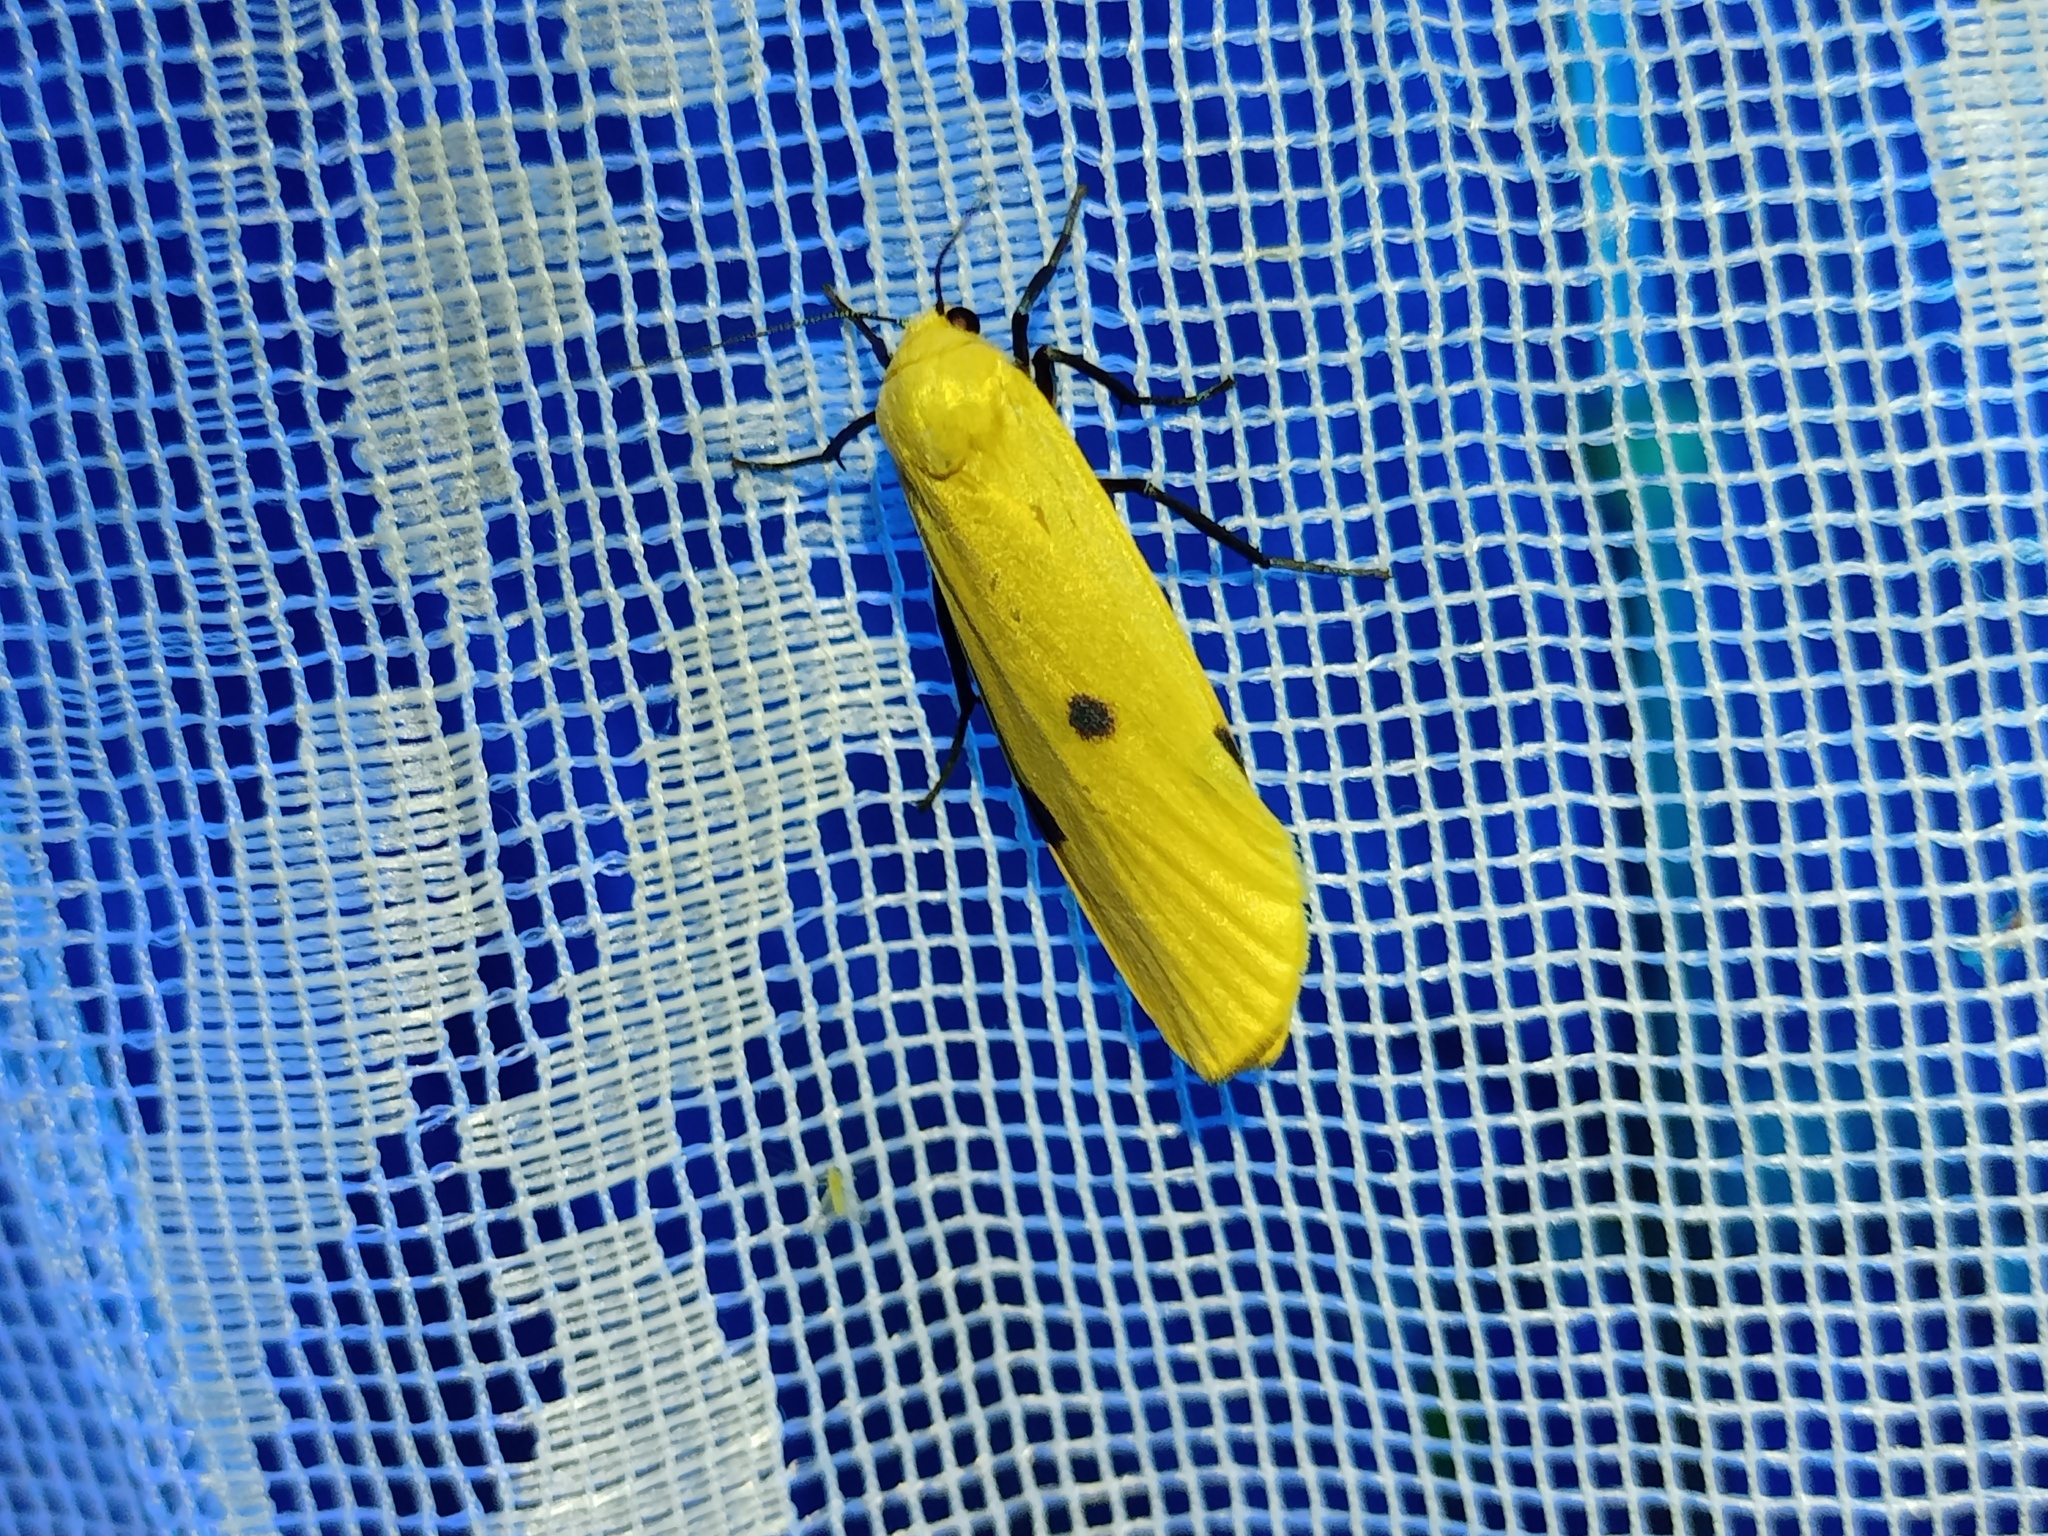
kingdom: Animalia
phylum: Arthropoda
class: Insecta
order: Lepidoptera
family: Erebidae
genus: Lithosia
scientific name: Lithosia quadra
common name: Four-spotted footman
